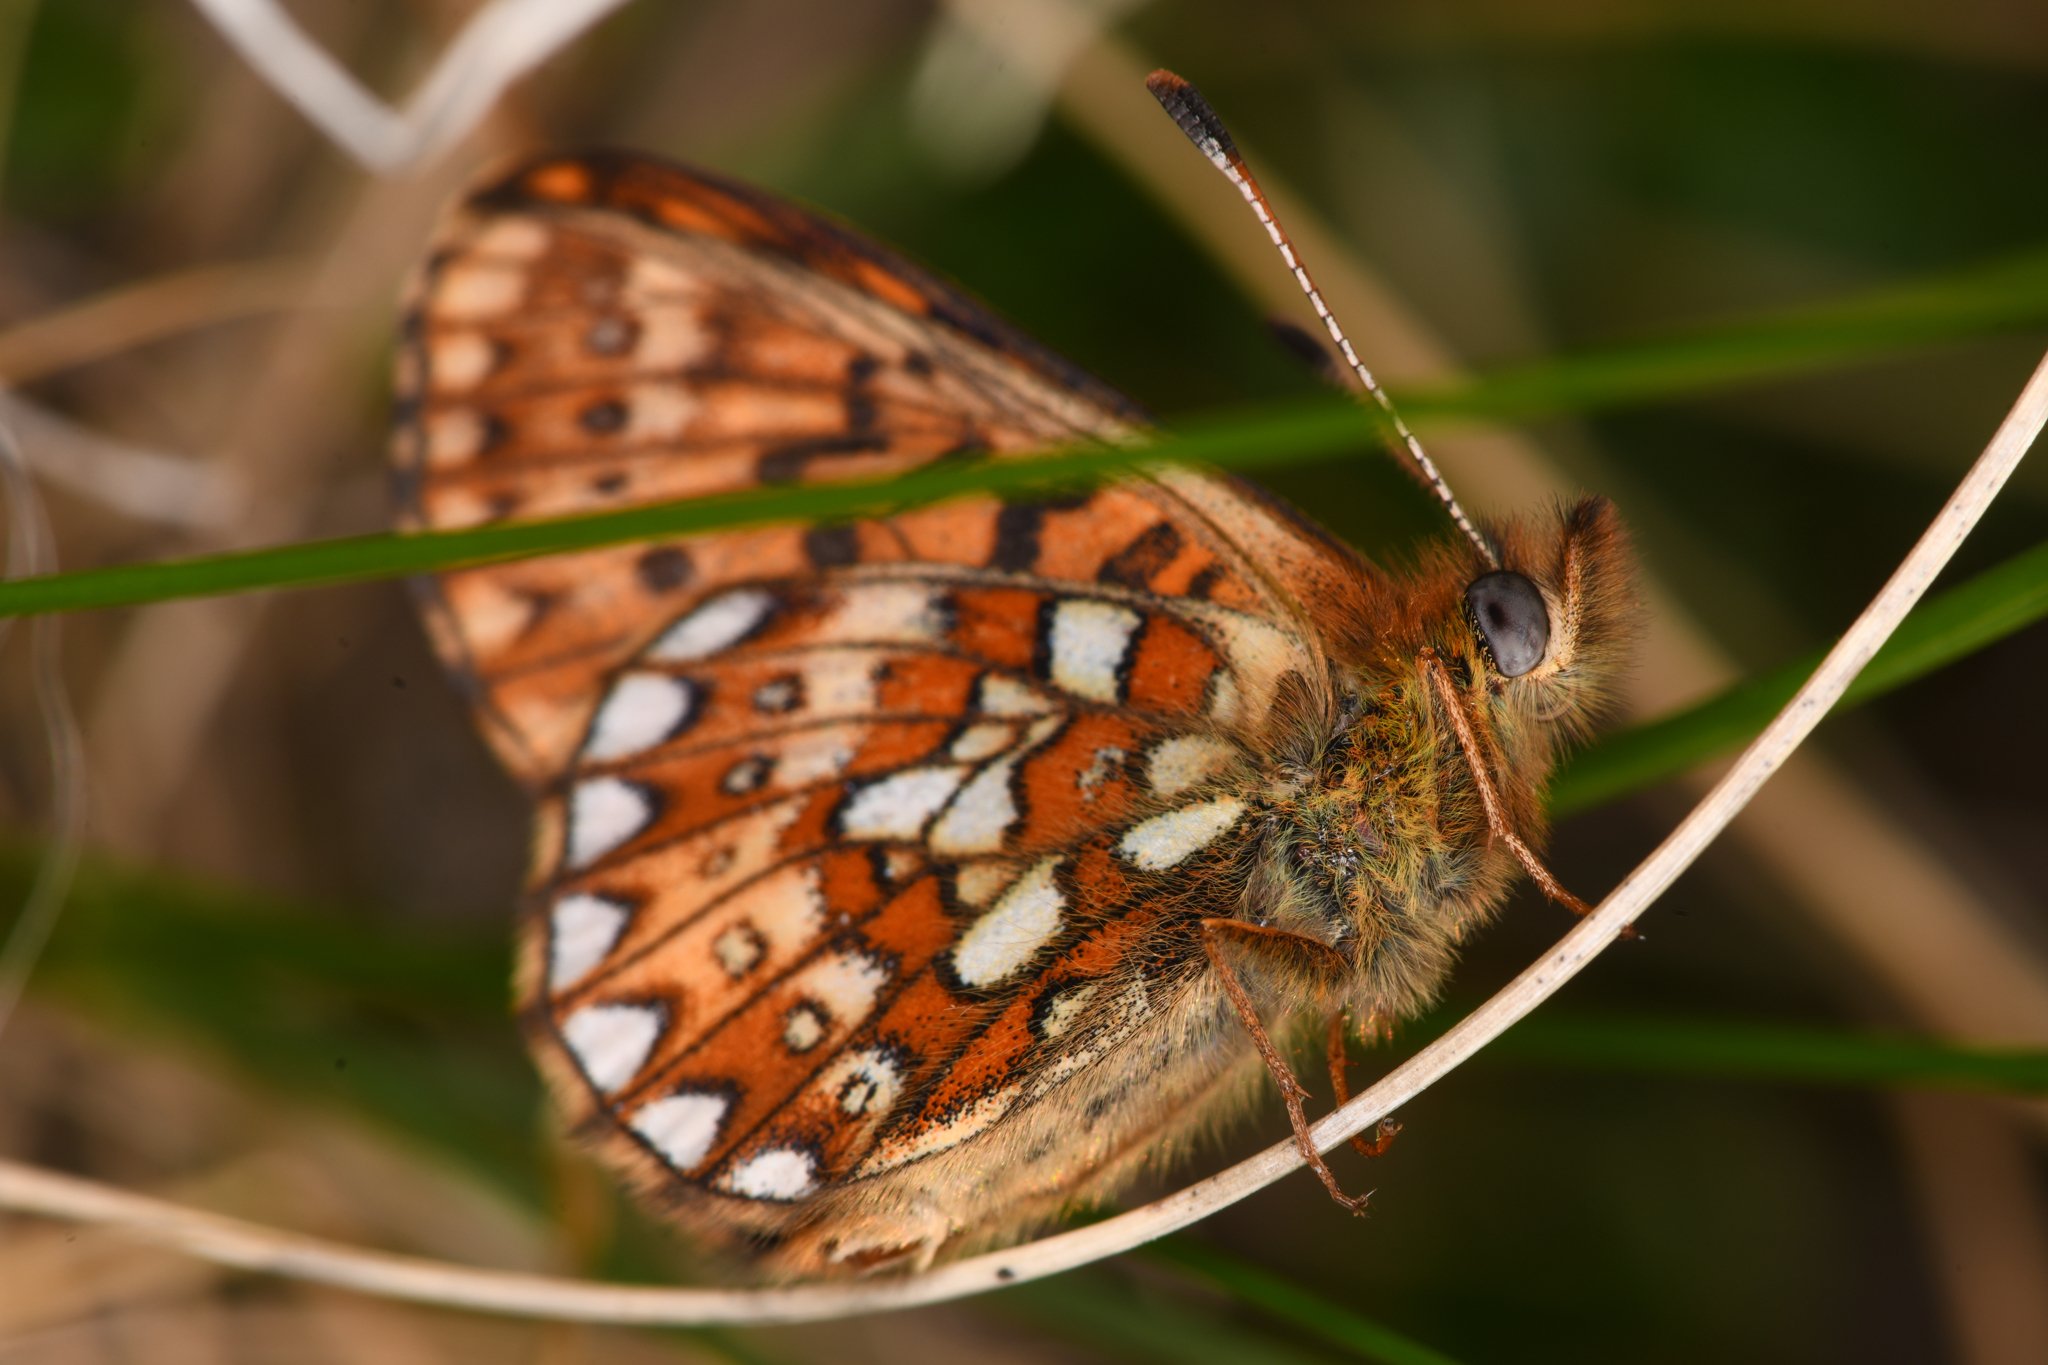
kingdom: Animalia
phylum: Arthropoda
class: Insecta
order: Lepidoptera
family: Nymphalidae
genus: Boloria
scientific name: Boloria eunomia
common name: Bog fritillary
